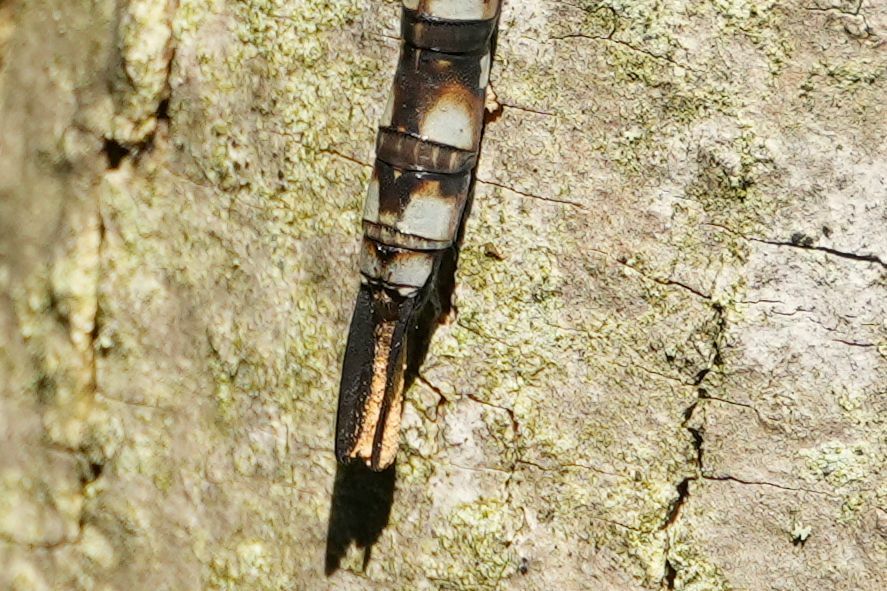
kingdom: Animalia
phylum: Arthropoda
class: Insecta
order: Odonata
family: Aeshnidae
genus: Aeshna
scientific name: Aeshna canadensis
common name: Canada darner
